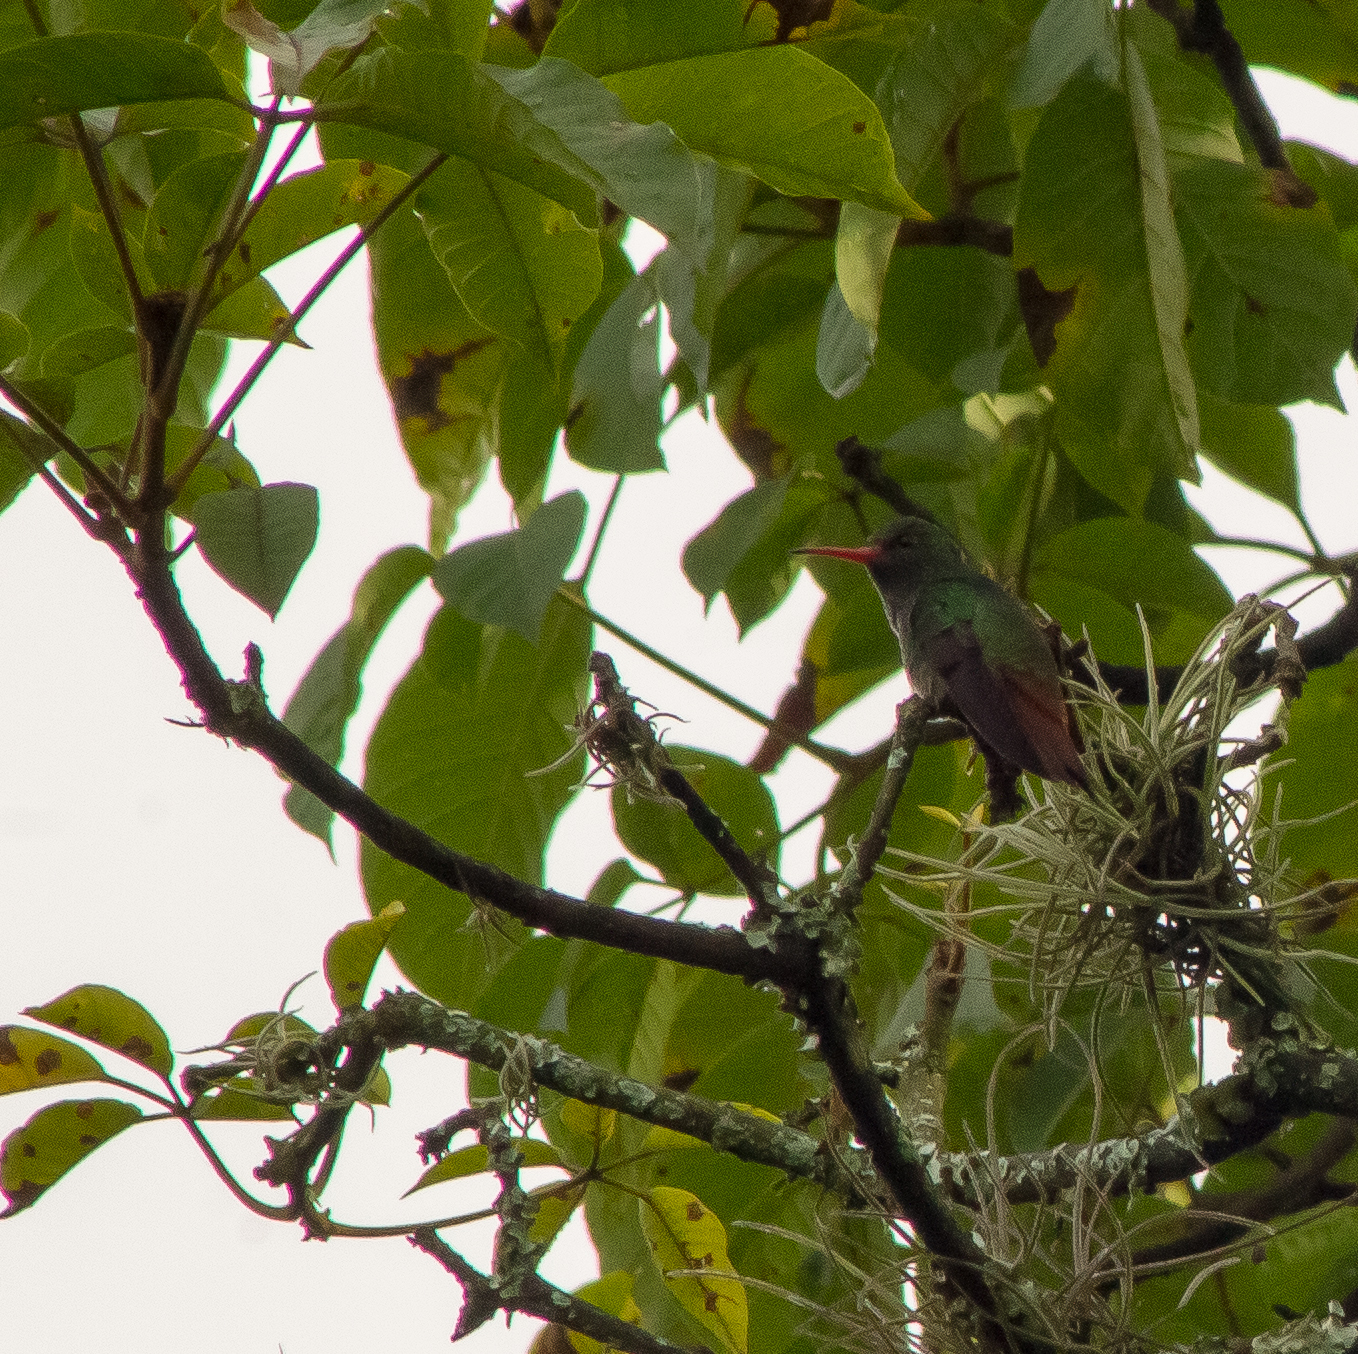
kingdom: Animalia
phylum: Chordata
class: Aves
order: Apodiformes
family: Trochilidae
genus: Amazilia
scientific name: Amazilia tzacatl
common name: Rufous-tailed hummingbird
